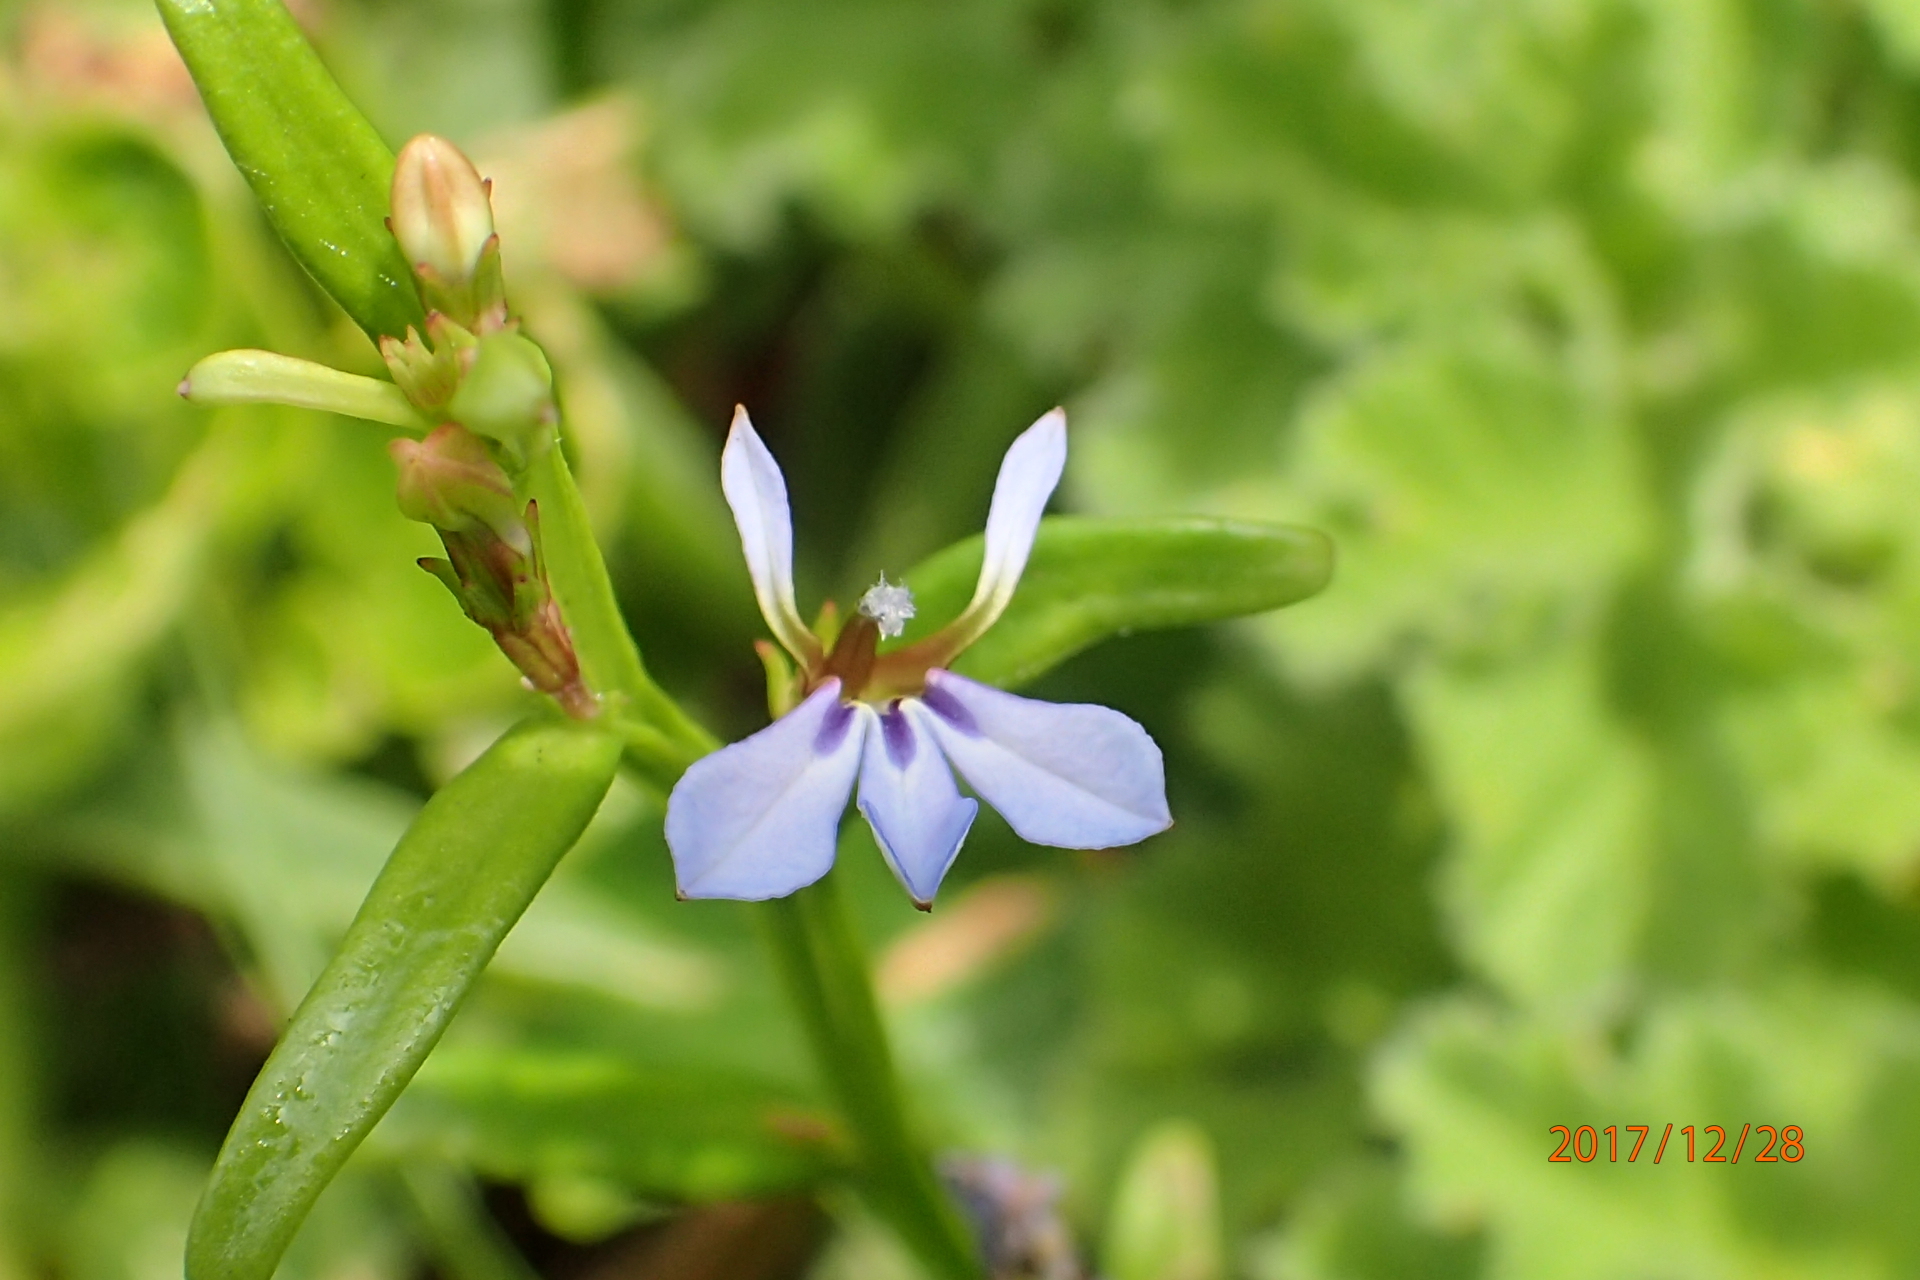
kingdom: Plantae
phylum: Tracheophyta
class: Magnoliopsida
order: Asterales
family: Campanulaceae
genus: Lobelia
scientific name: Lobelia anceps
